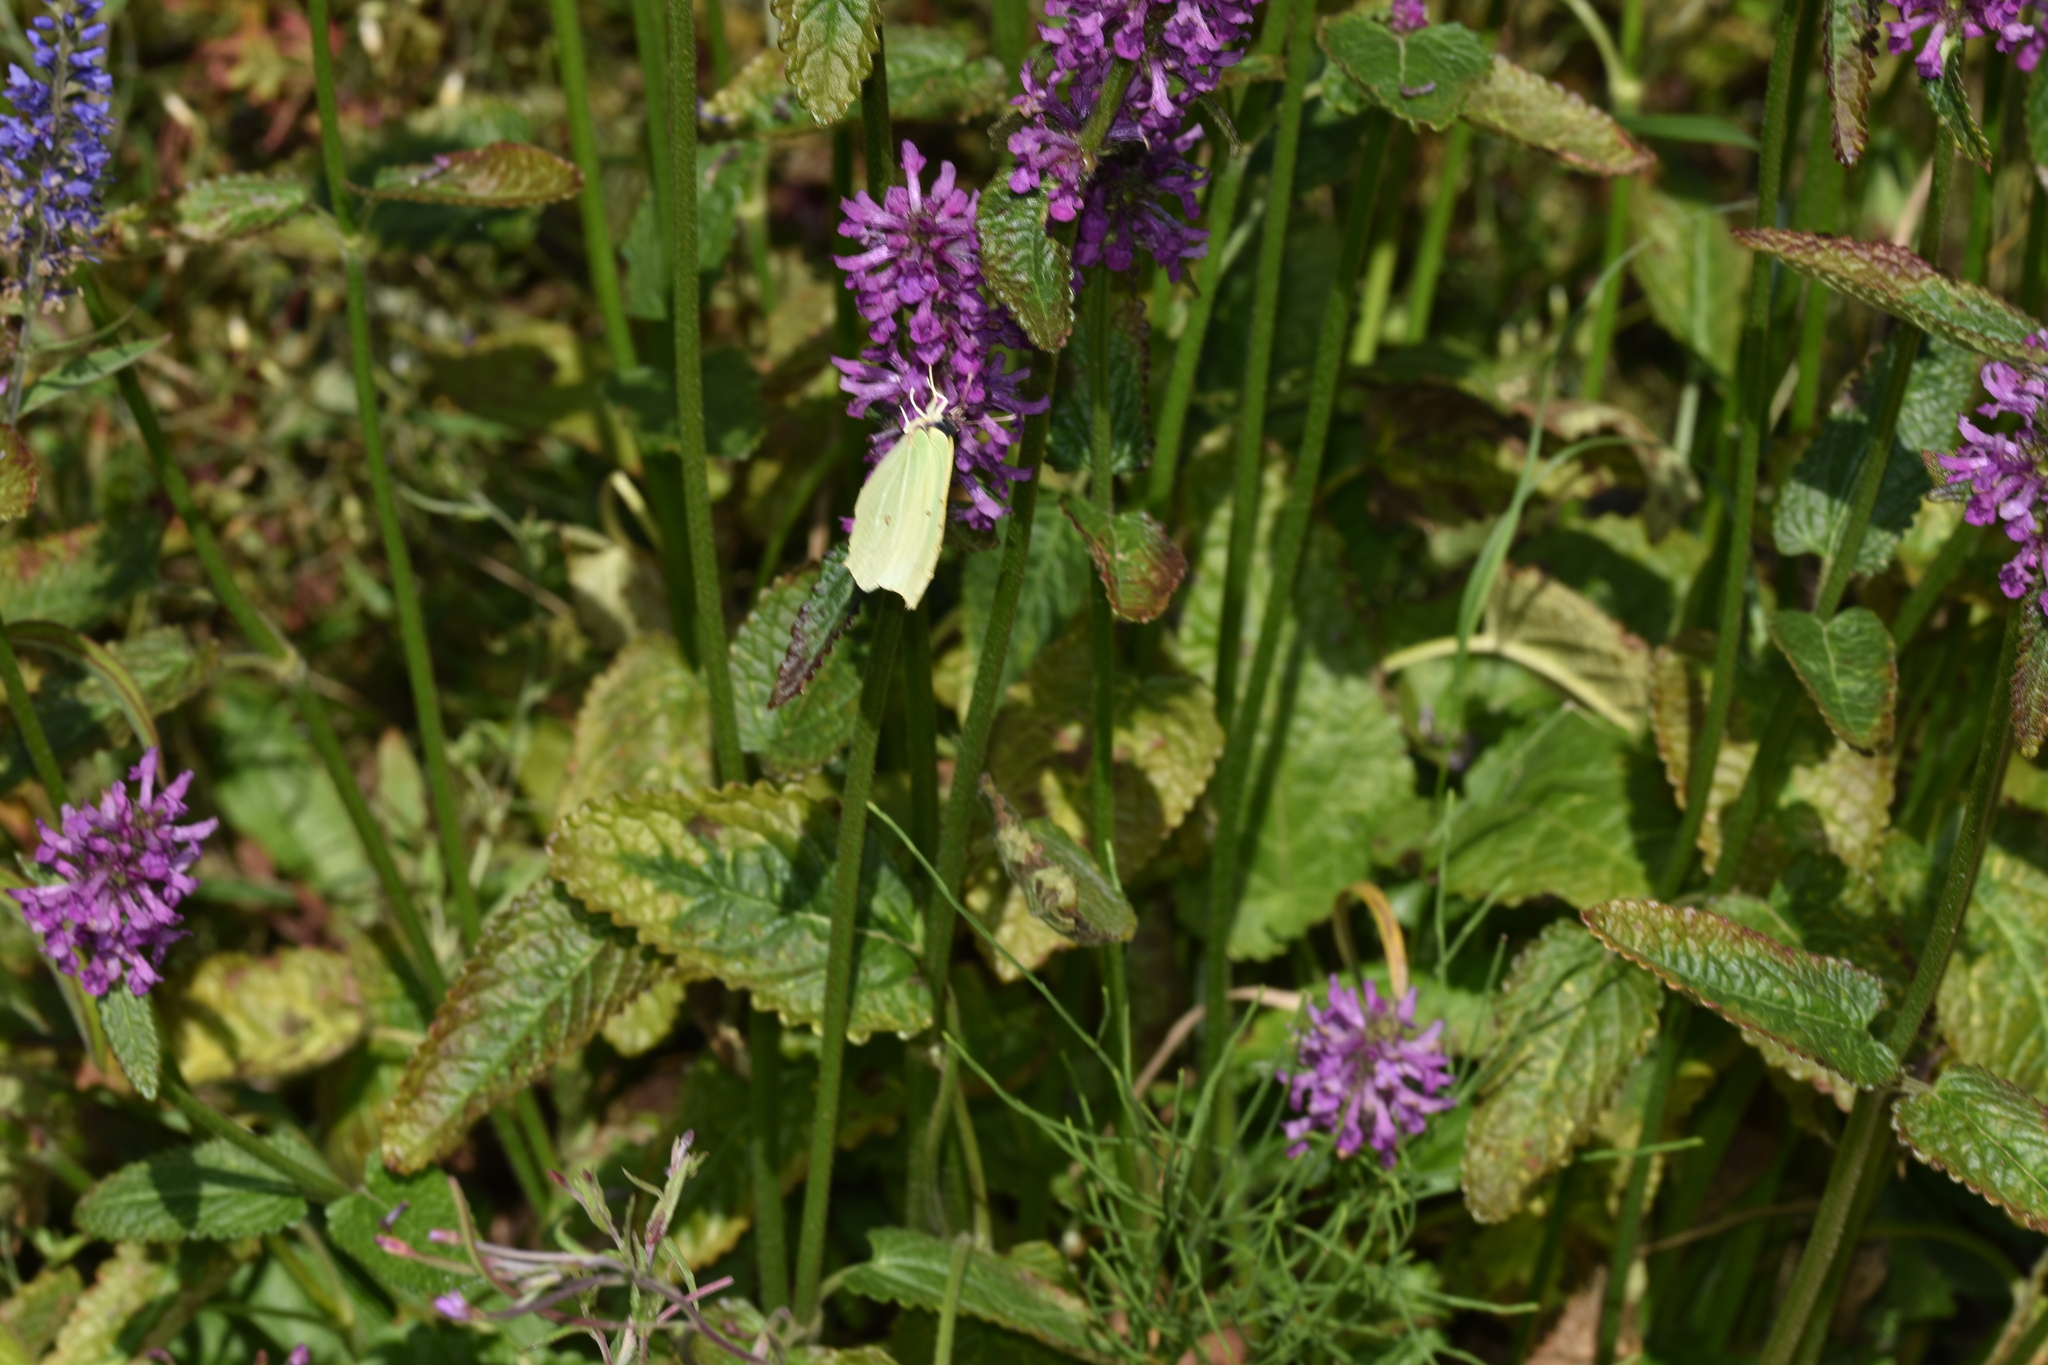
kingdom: Animalia
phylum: Arthropoda
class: Insecta
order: Lepidoptera
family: Pieridae
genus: Gonepteryx
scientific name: Gonepteryx rhamni
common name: Brimstone
